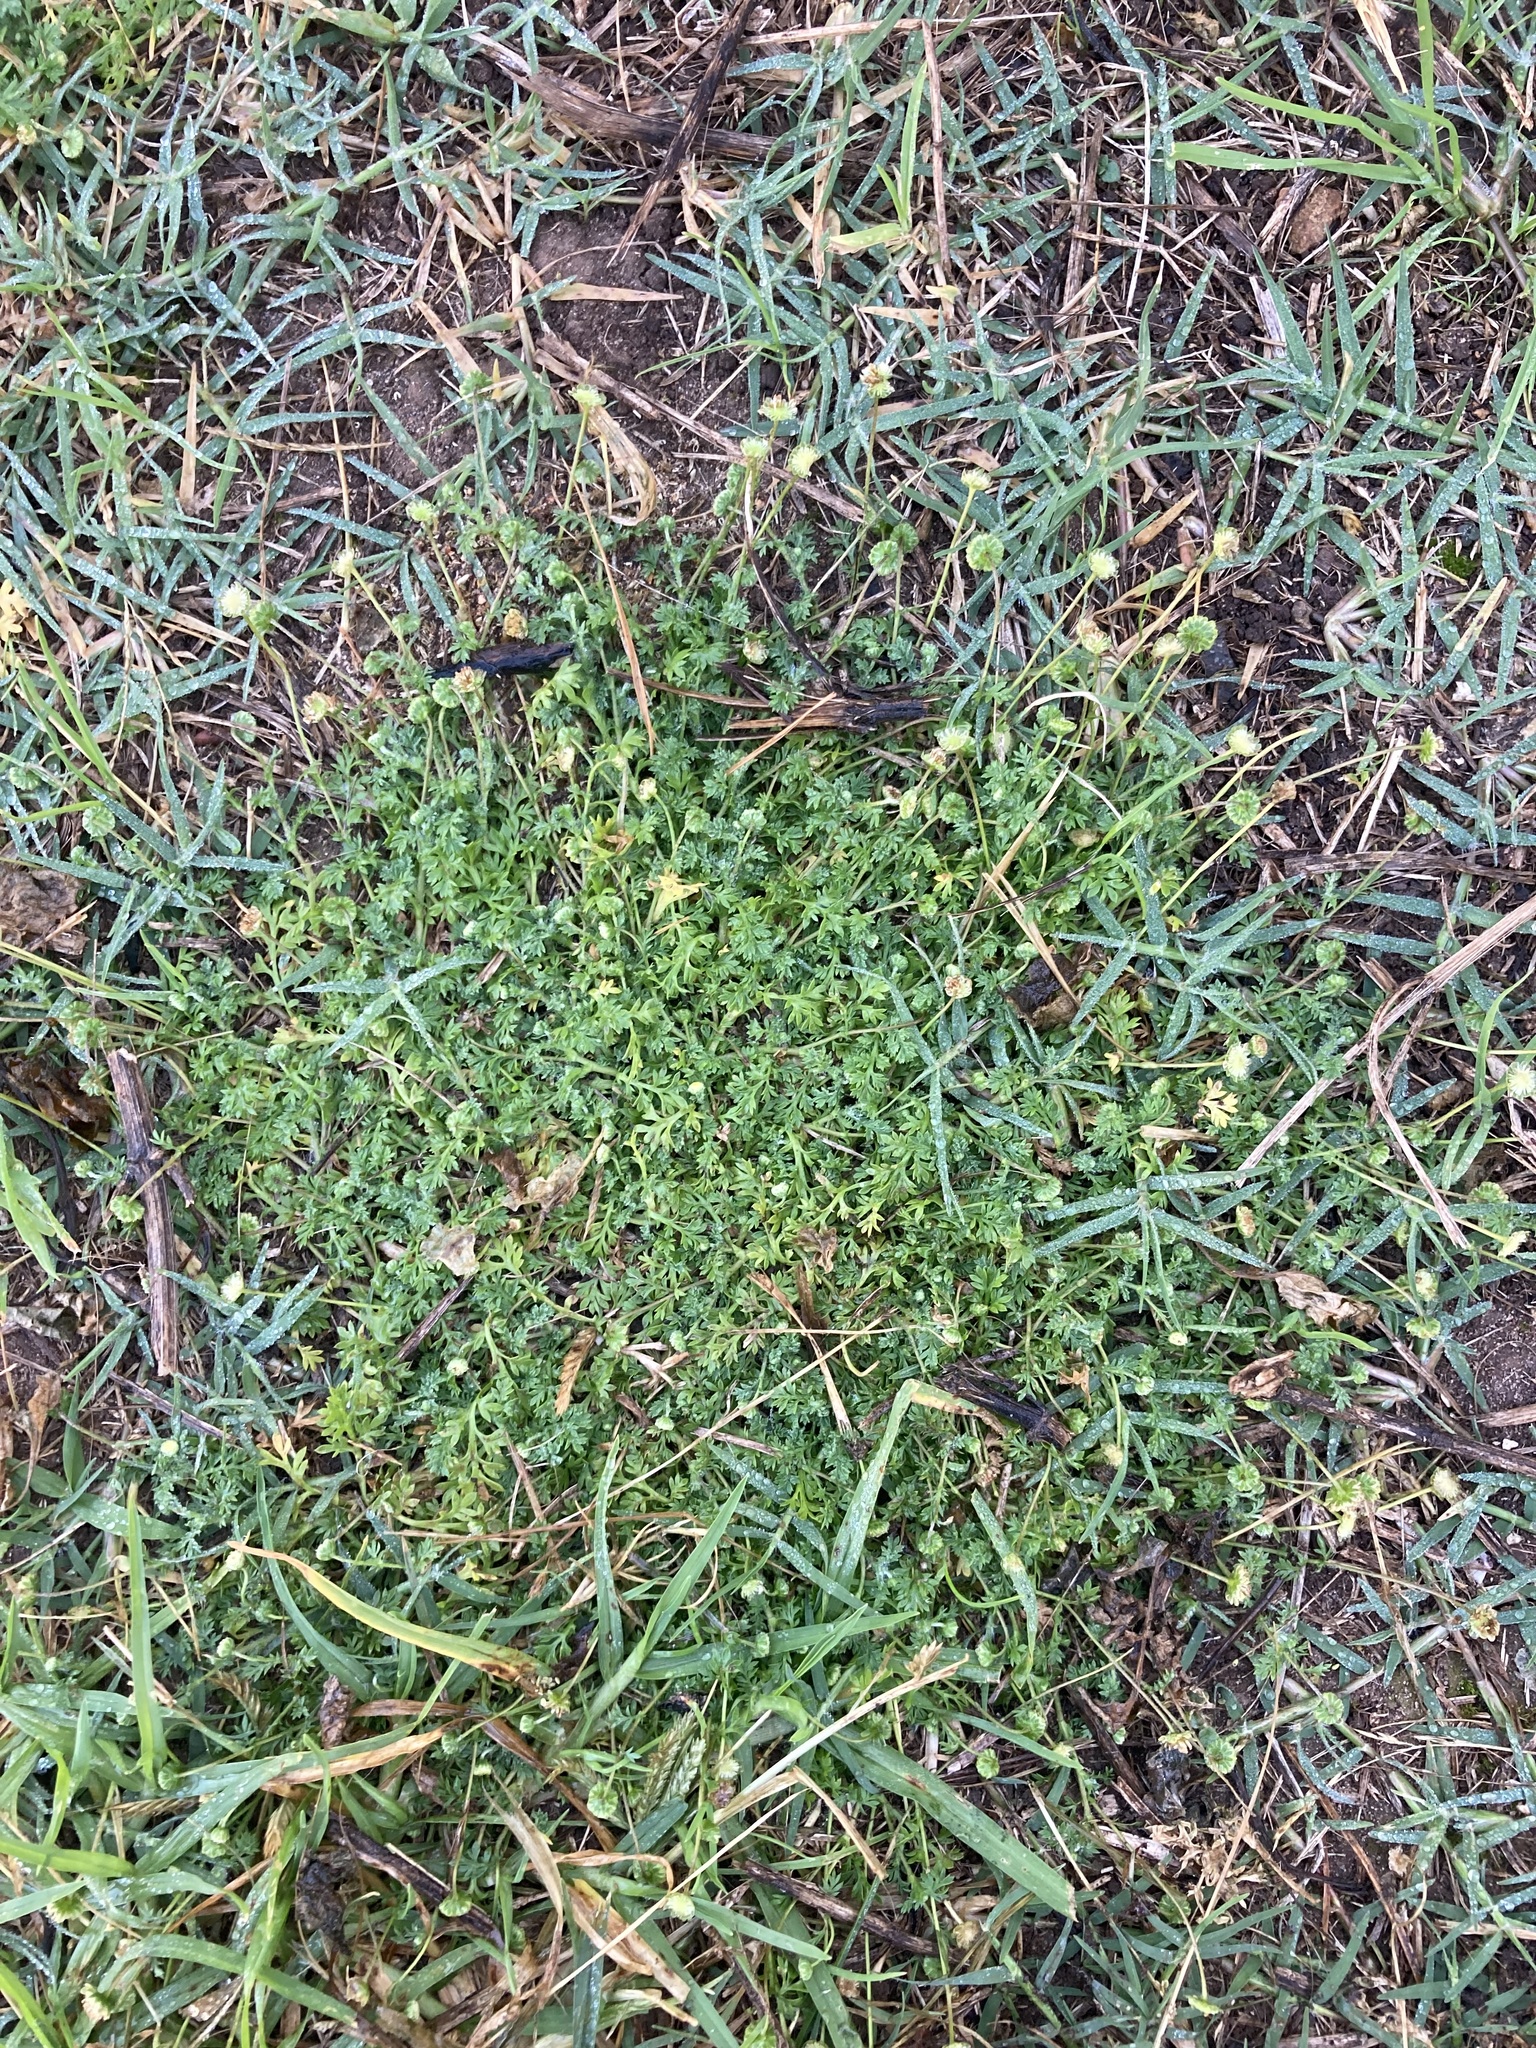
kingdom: Plantae
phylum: Tracheophyta
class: Magnoliopsida
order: Asterales
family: Asteraceae
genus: Cotula
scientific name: Cotula australis
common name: Australian waterbuttons
